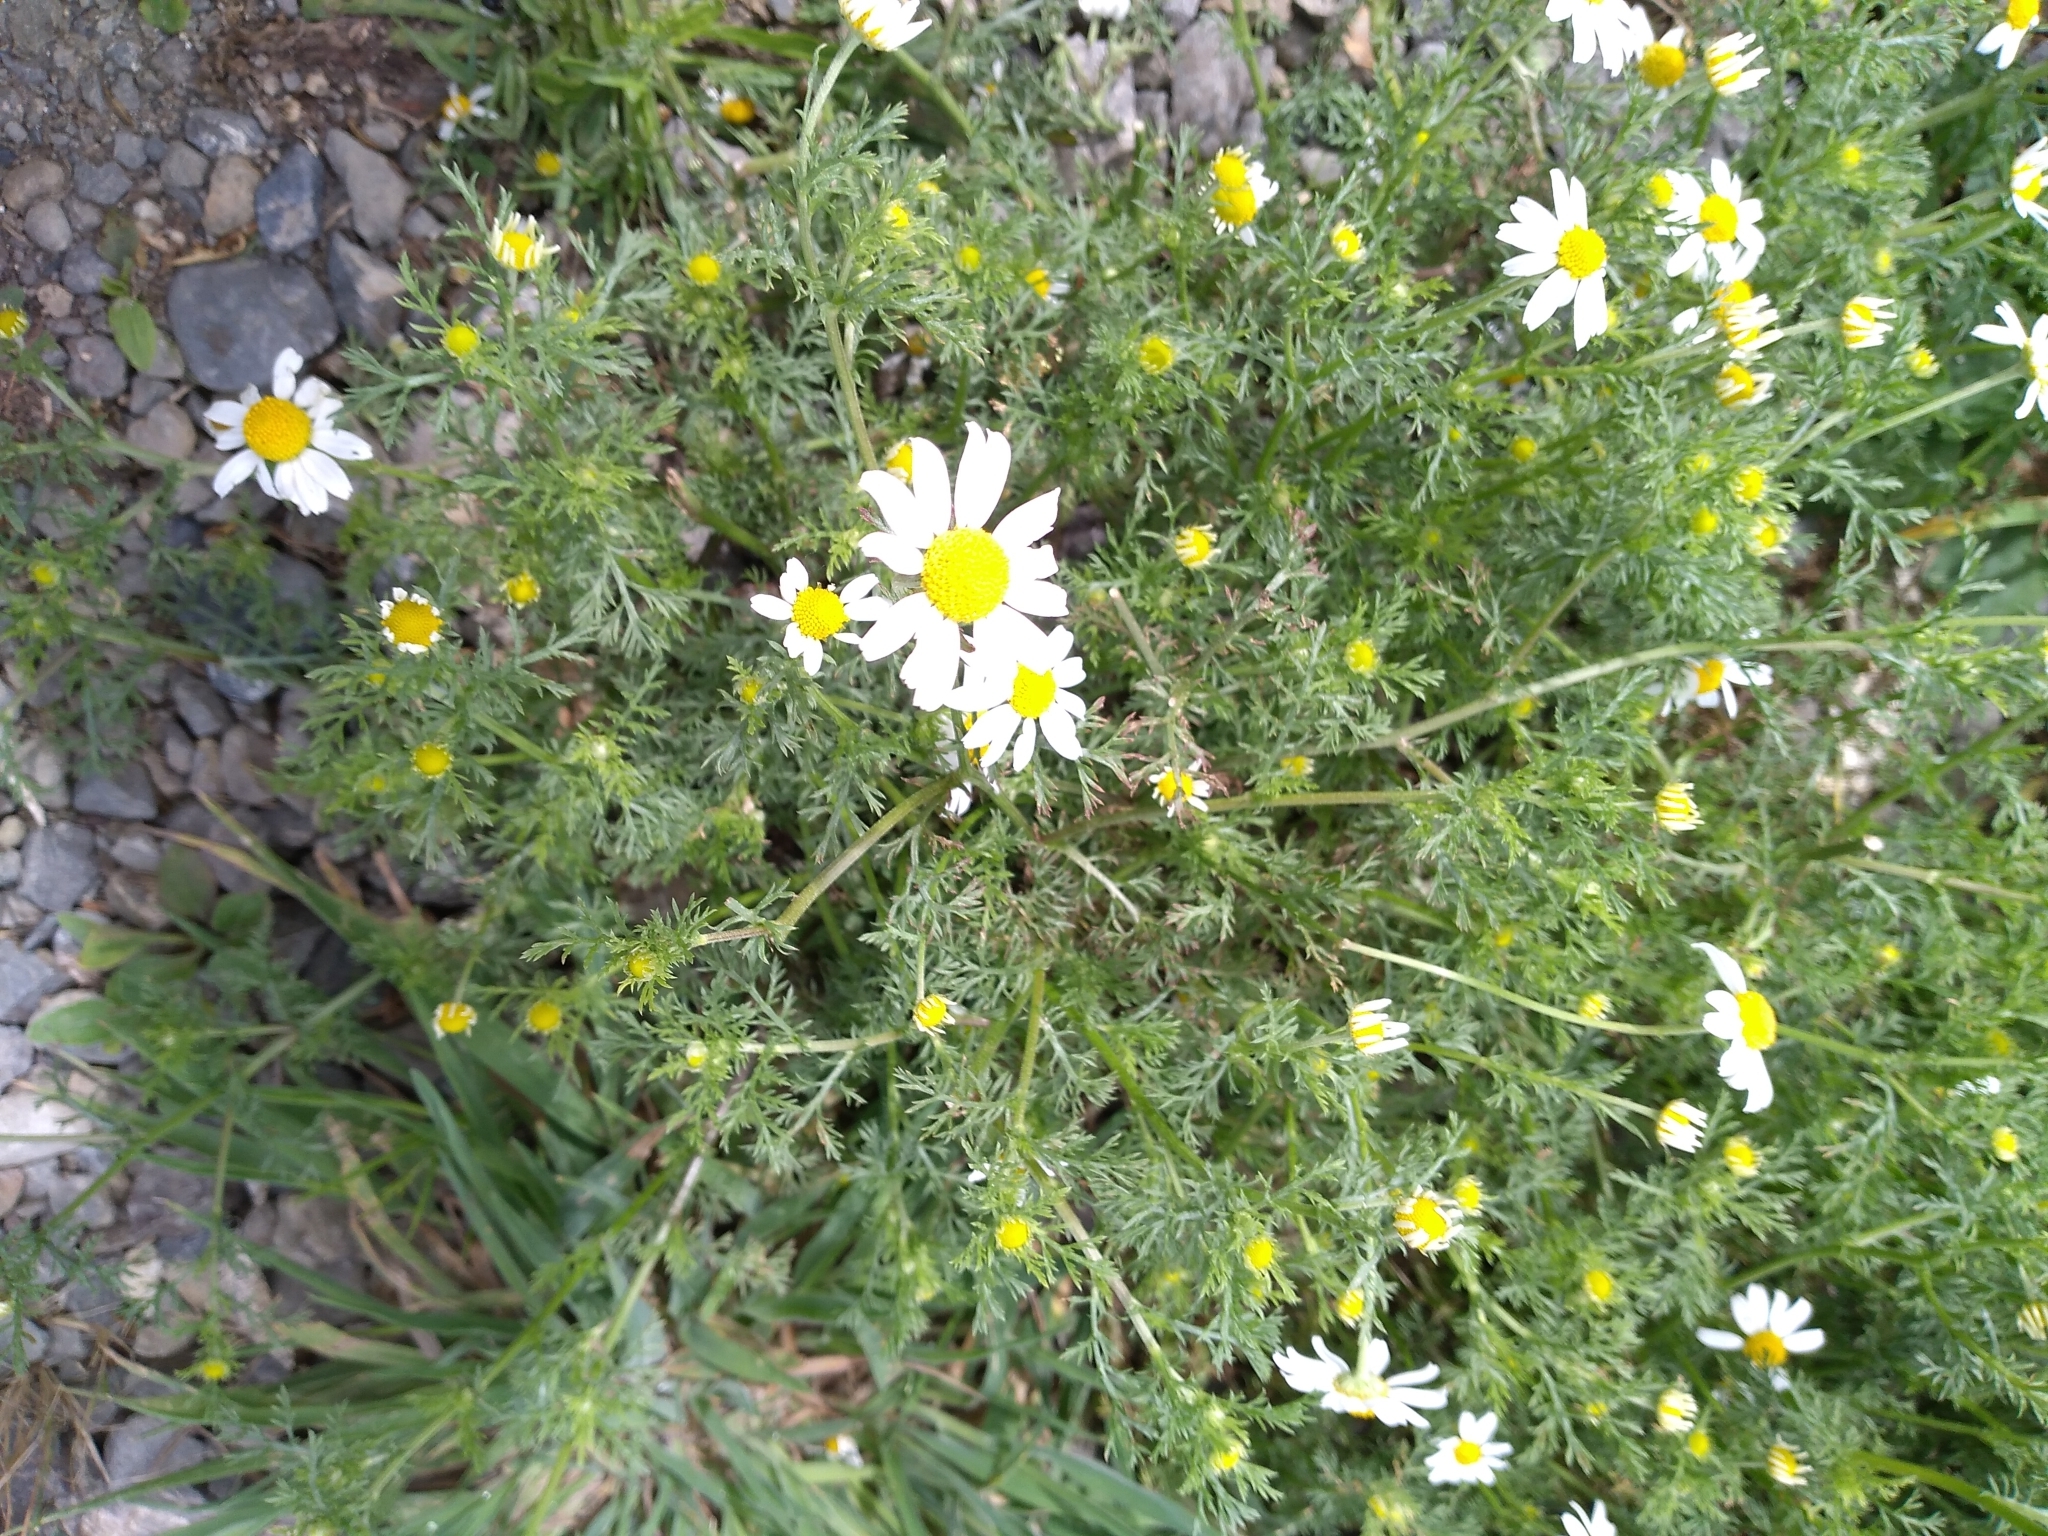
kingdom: Plantae
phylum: Tracheophyta
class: Magnoliopsida
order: Asterales
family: Asteraceae
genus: Anthemis
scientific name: Anthemis cotula
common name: Stinking chamomile
